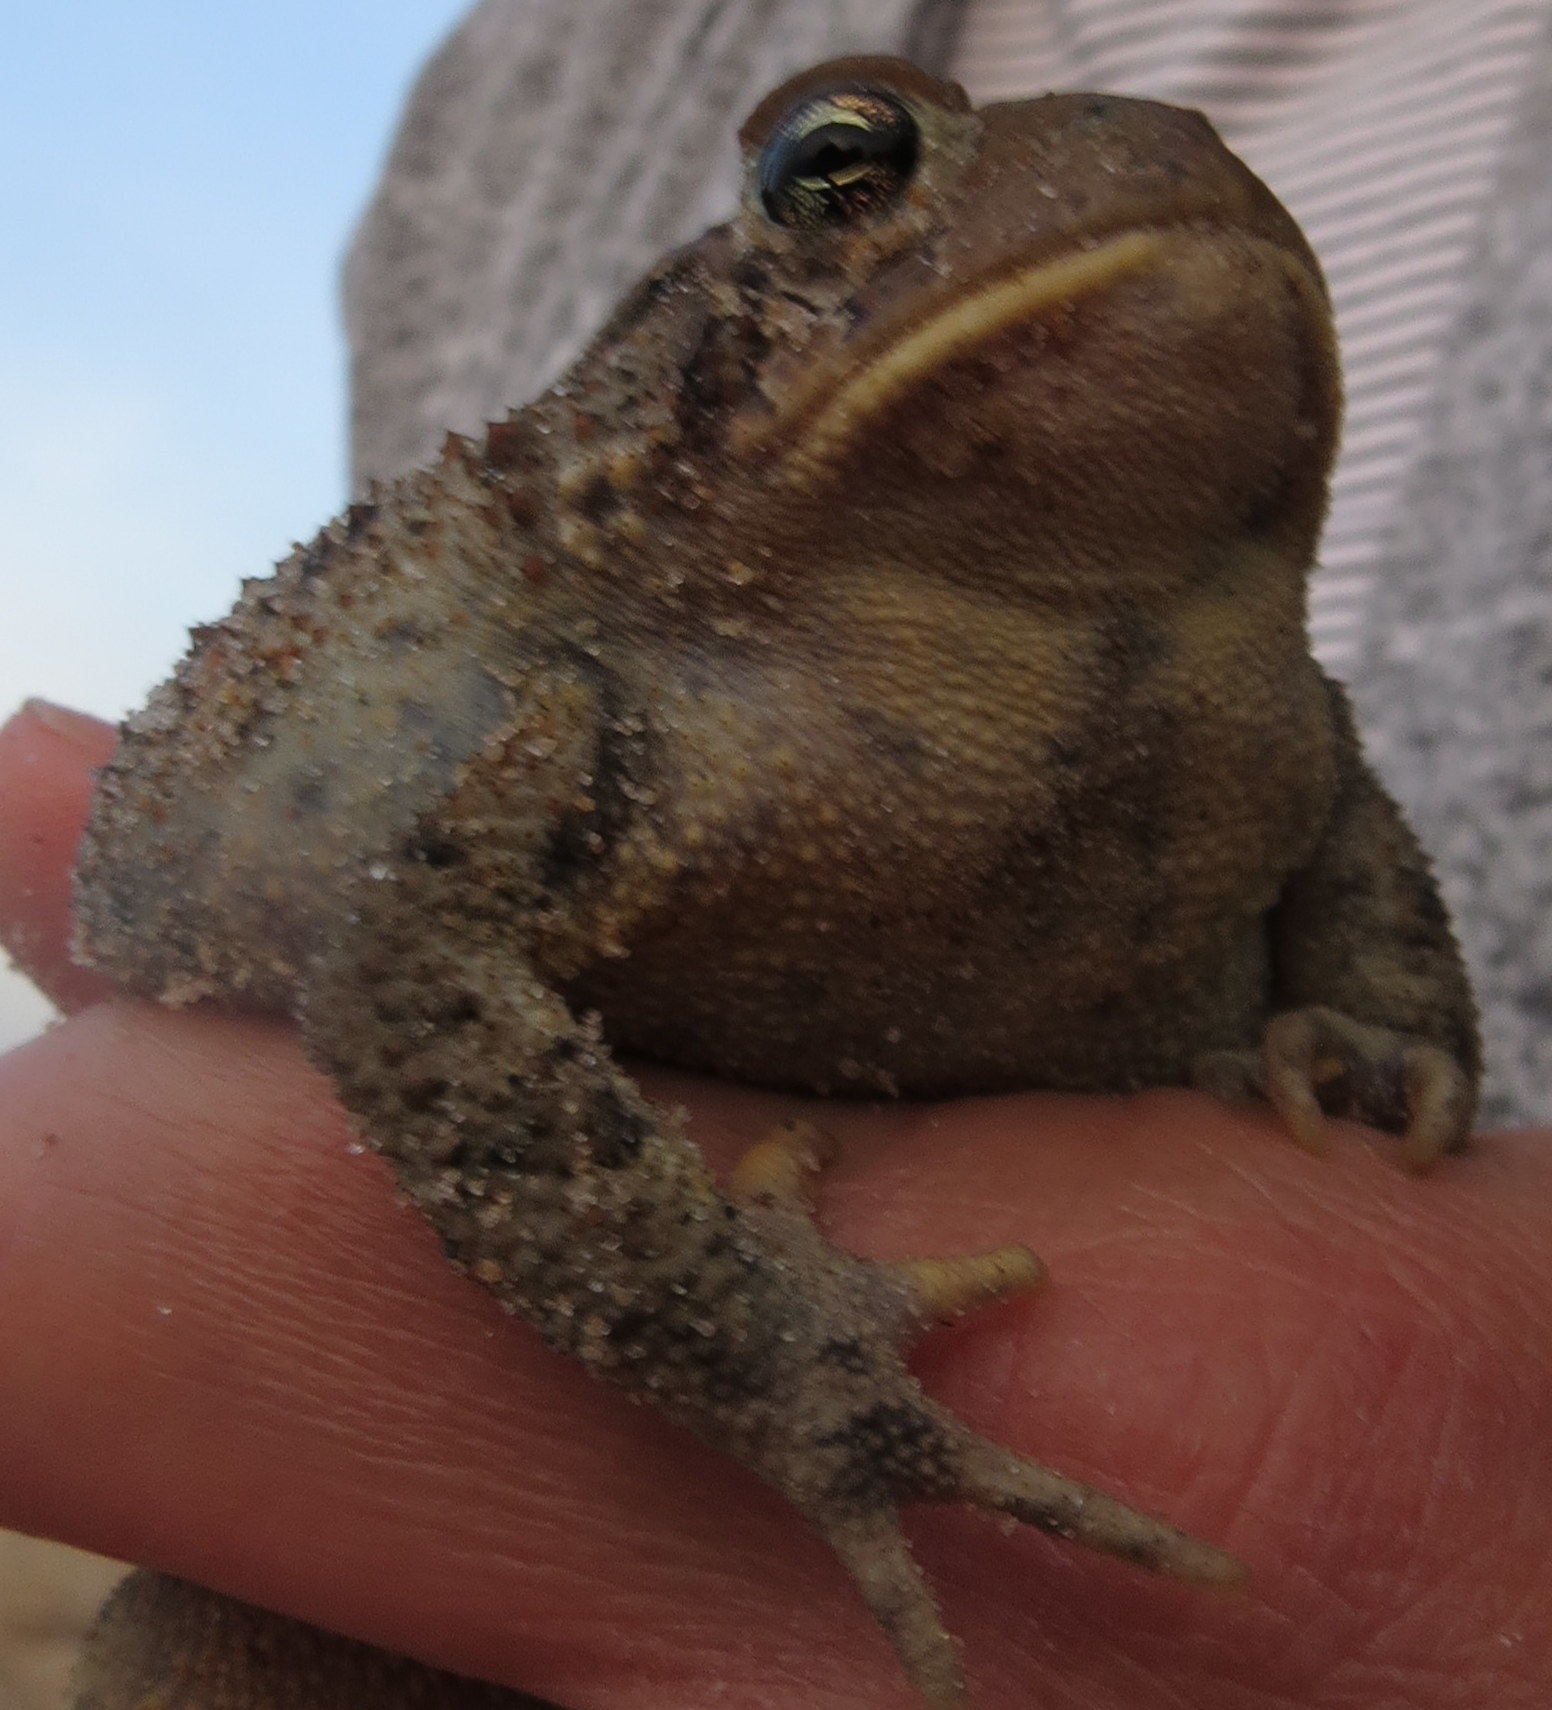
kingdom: Animalia
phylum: Chordata
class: Amphibia
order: Anura
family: Bufonidae
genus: Anaxyrus
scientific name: Anaxyrus americanus
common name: American toad
